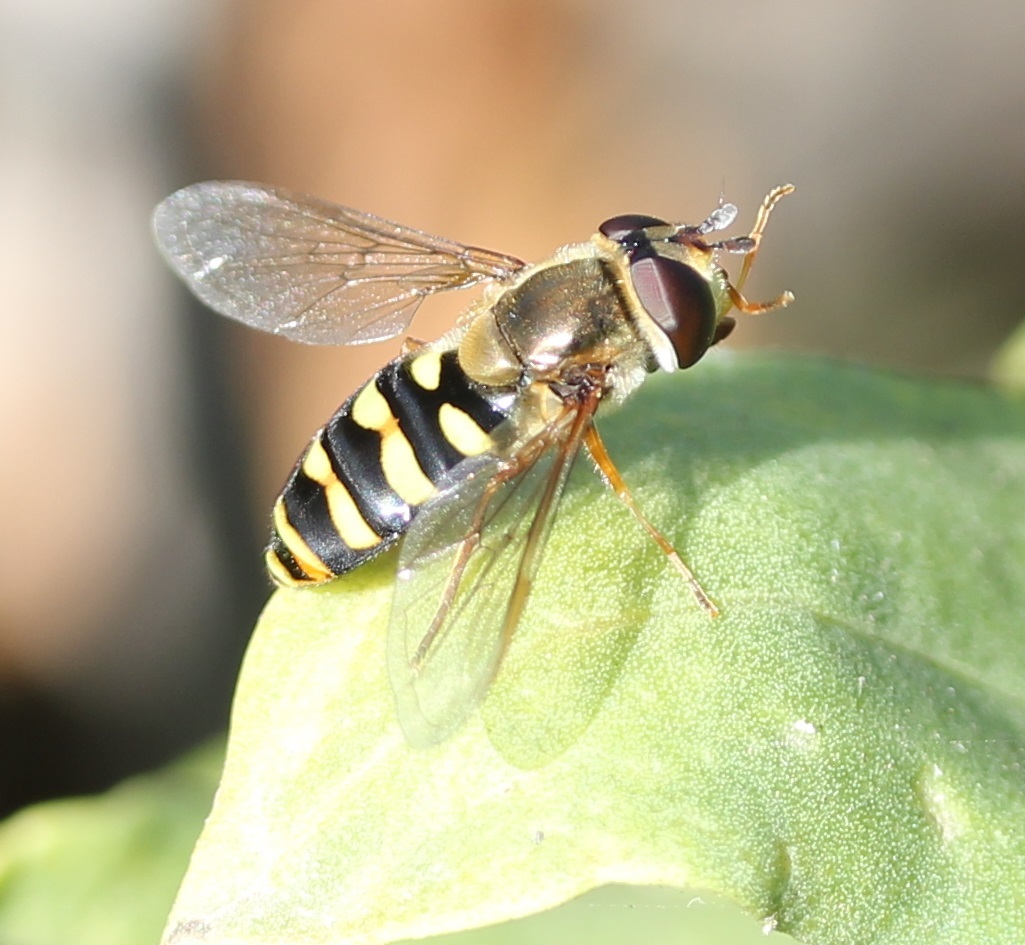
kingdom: Animalia
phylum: Arthropoda
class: Insecta
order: Diptera
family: Syrphidae
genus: Eupeodes
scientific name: Eupeodes fumipennis
